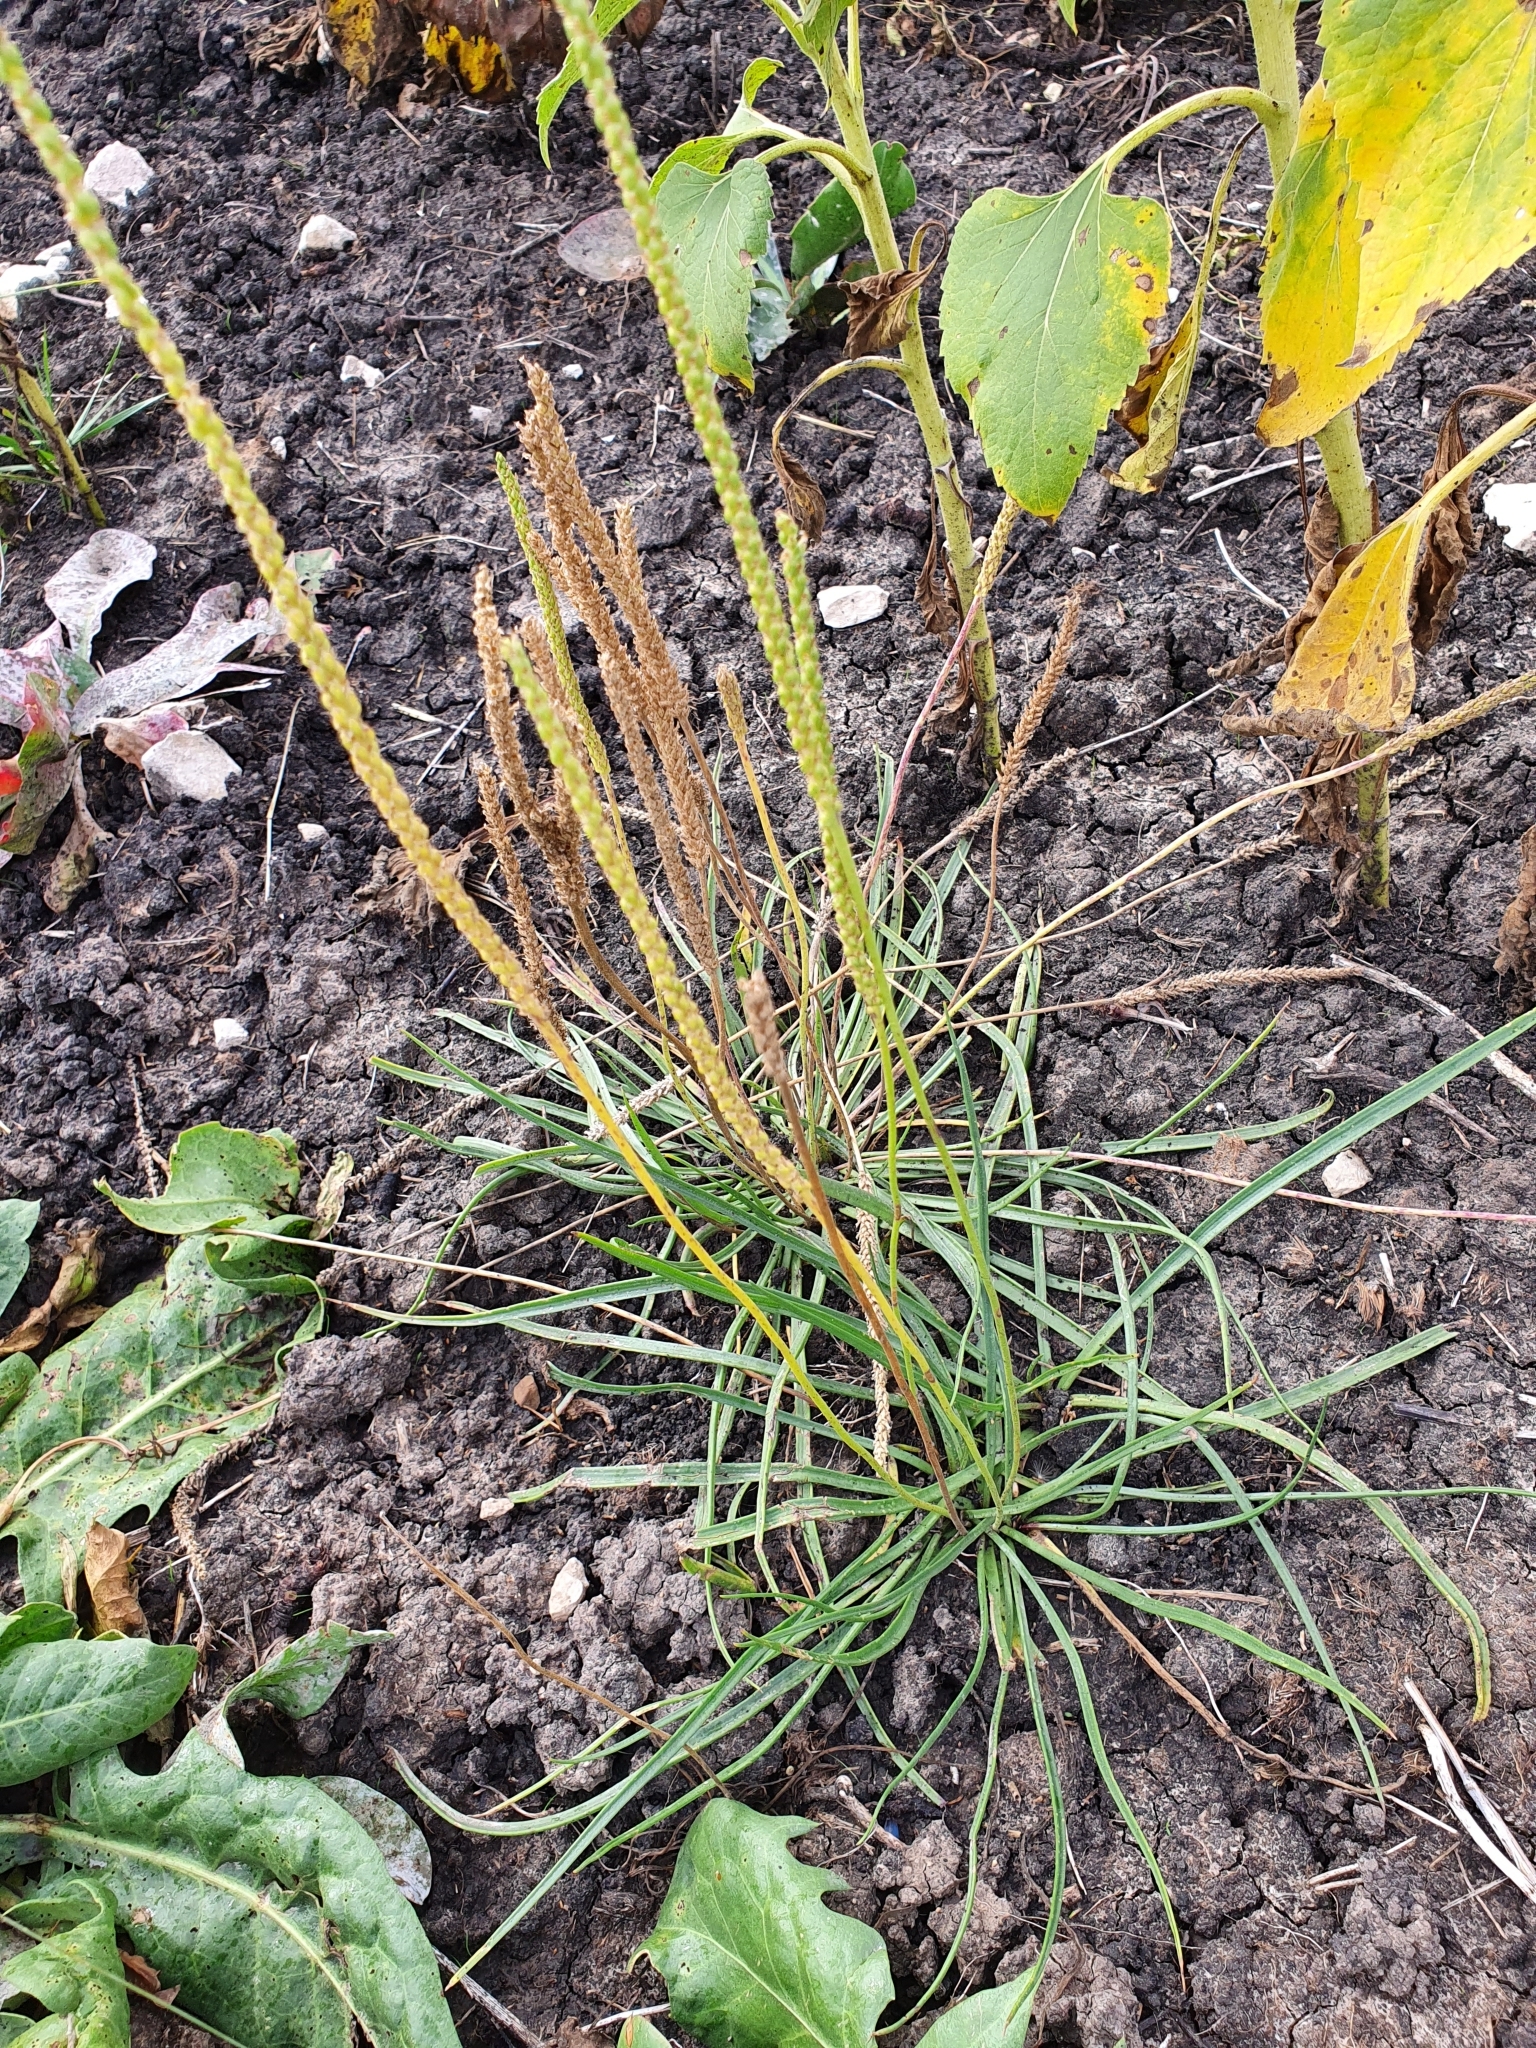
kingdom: Plantae
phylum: Tracheophyta
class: Magnoliopsida
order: Lamiales
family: Plantaginaceae
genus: Plantago
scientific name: Plantago salsa
